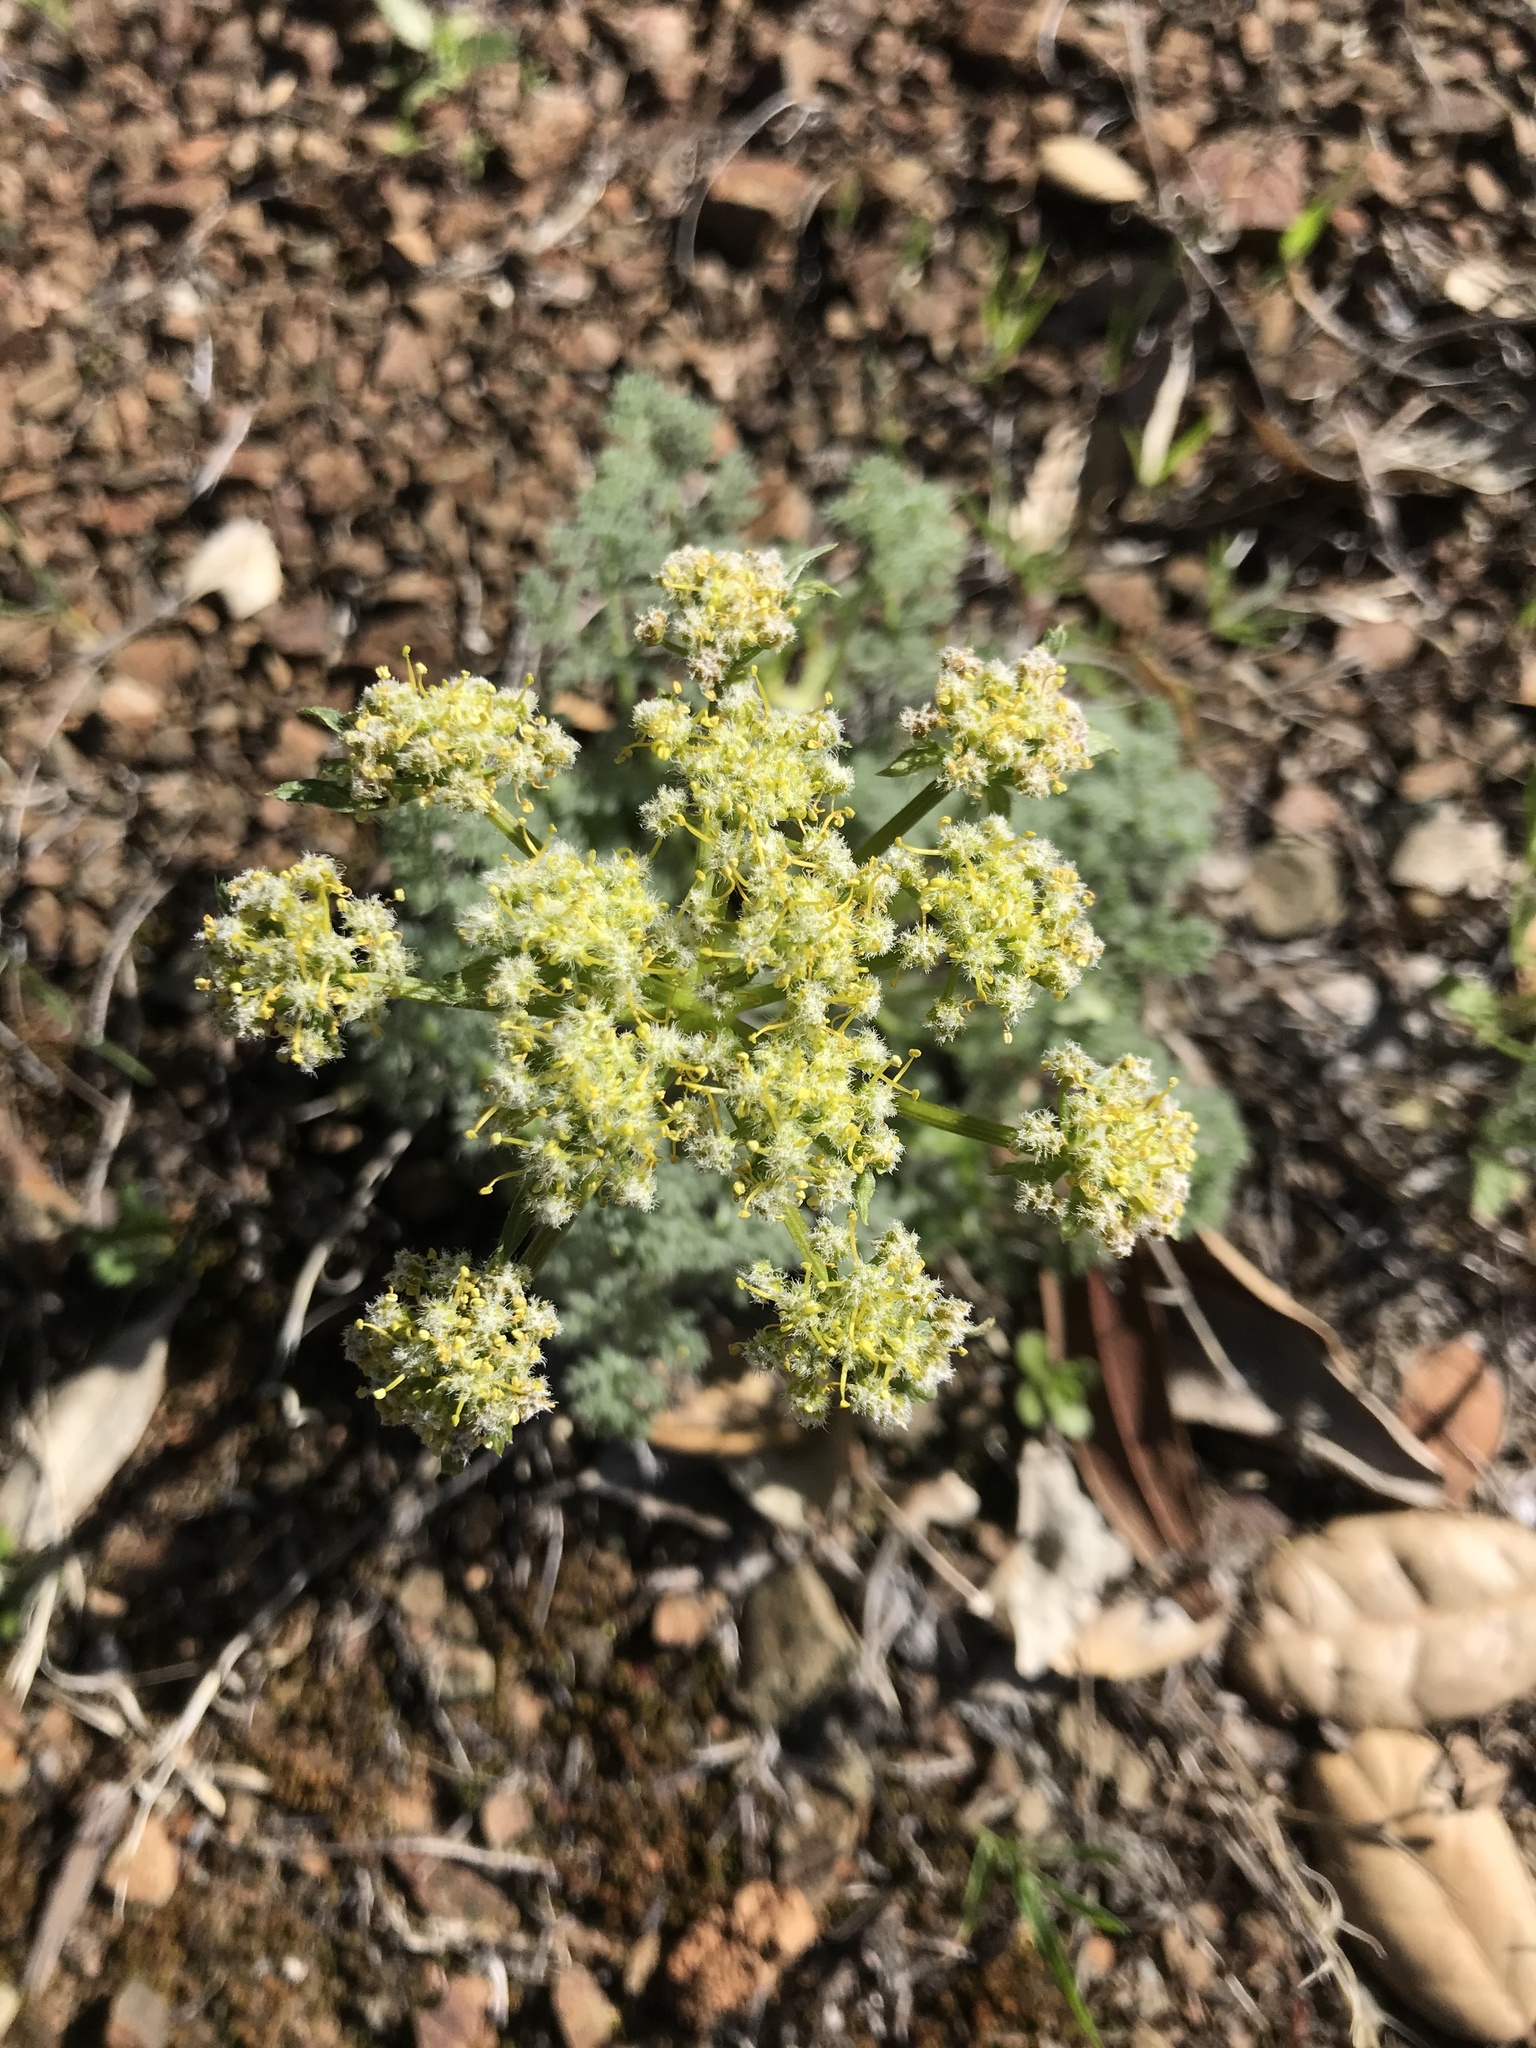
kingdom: Plantae
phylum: Tracheophyta
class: Magnoliopsida
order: Apiales
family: Apiaceae
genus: Lomatium
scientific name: Lomatium dasycarpum
